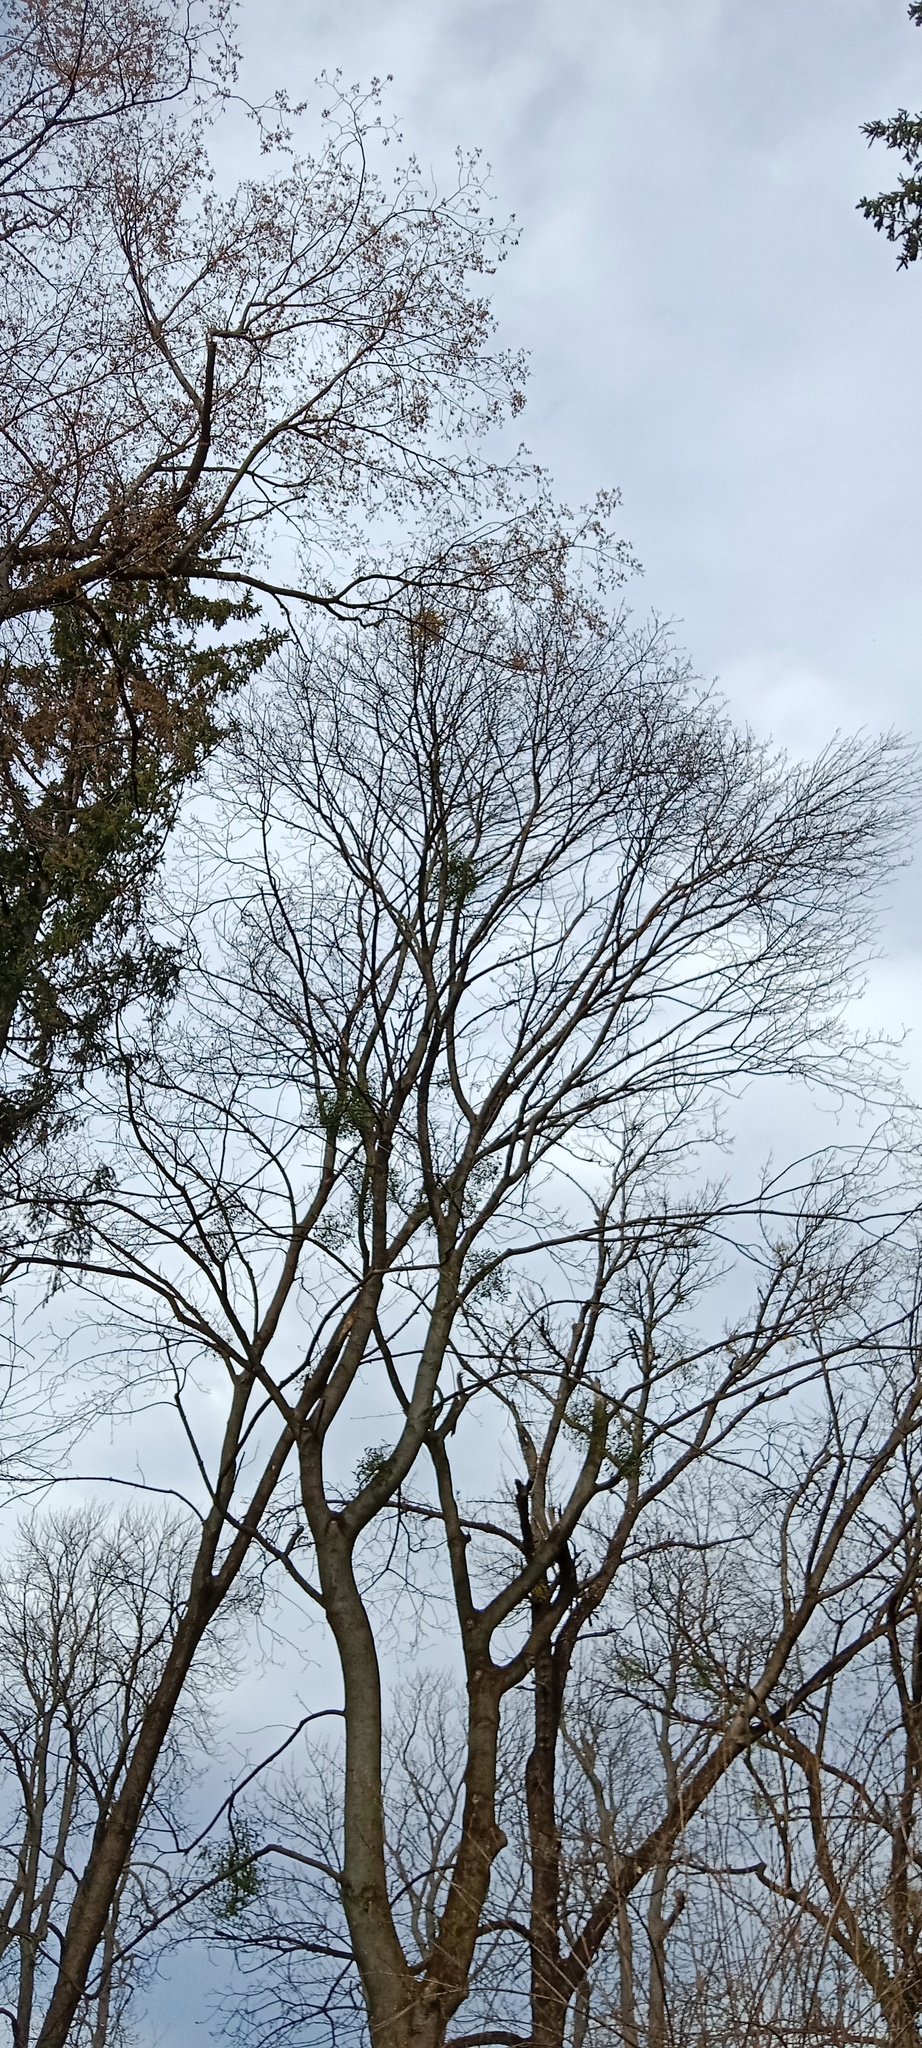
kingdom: Plantae
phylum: Tracheophyta
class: Magnoliopsida
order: Santalales
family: Viscaceae
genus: Viscum
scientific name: Viscum album
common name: Mistletoe
